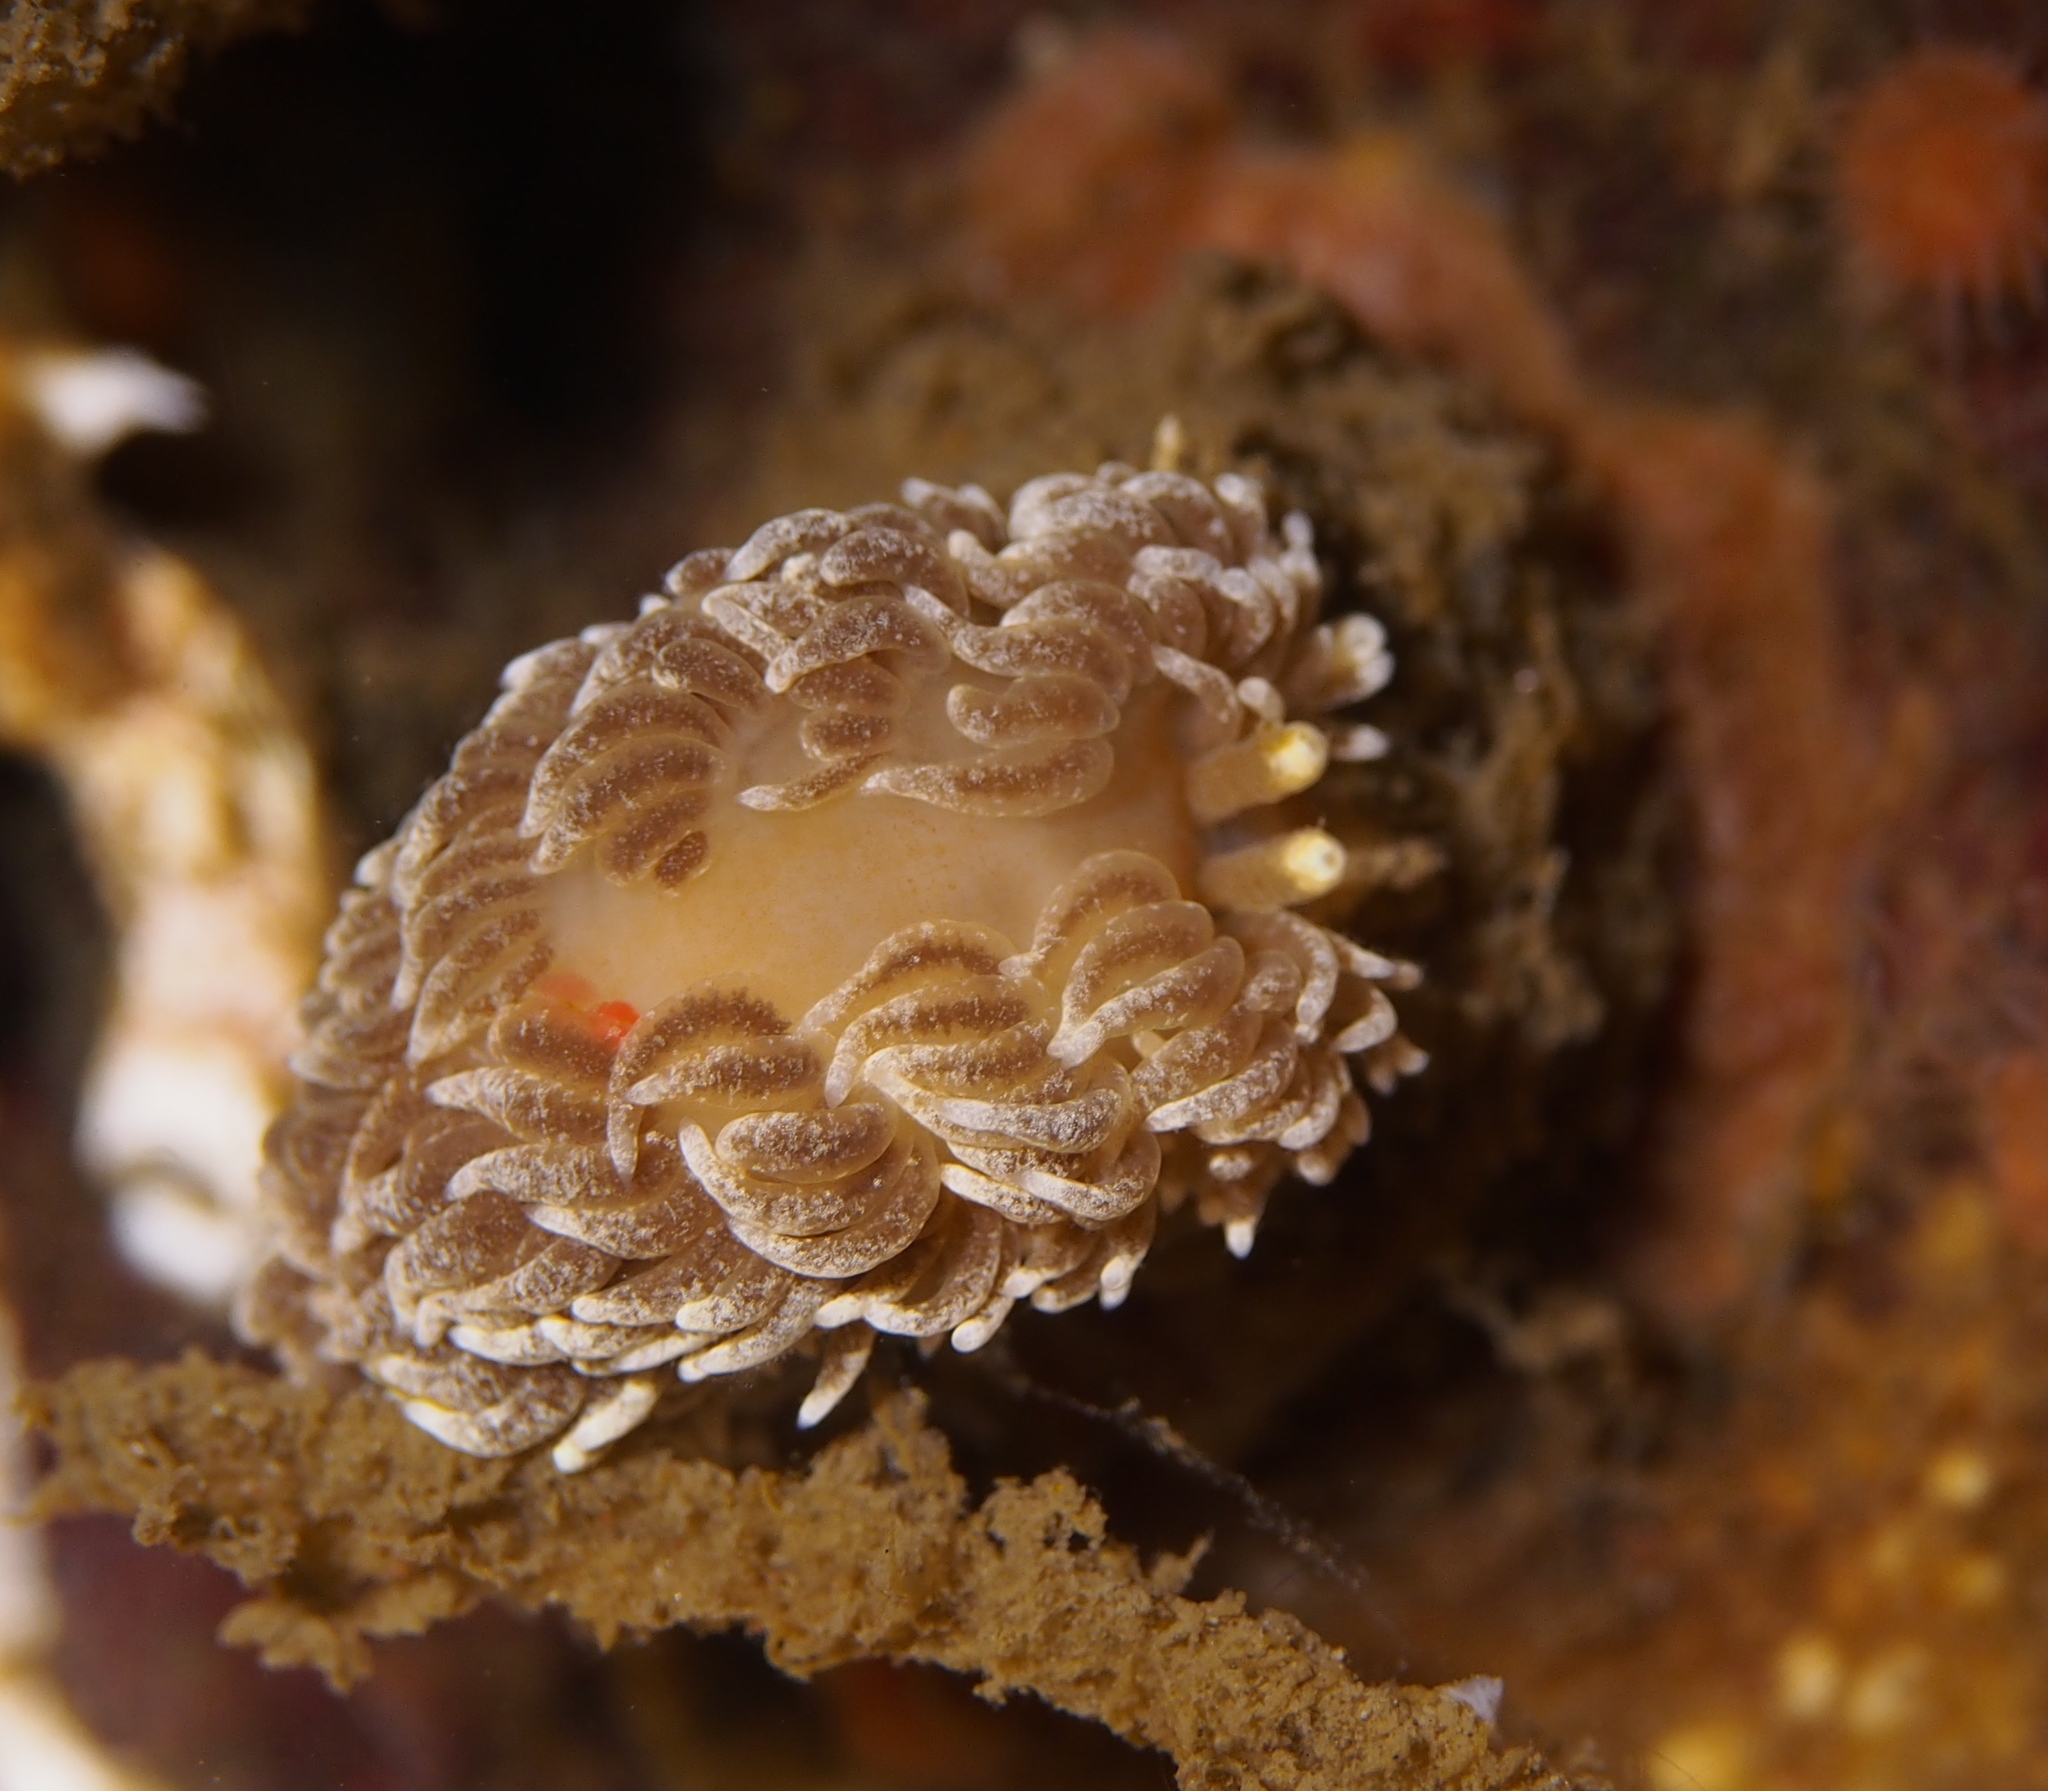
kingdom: Animalia
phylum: Mollusca
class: Gastropoda
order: Nudibranchia
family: Aeolidiidae
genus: Aeolidiella
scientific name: Aeolidiella glauca
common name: Orange-brown aeolid
